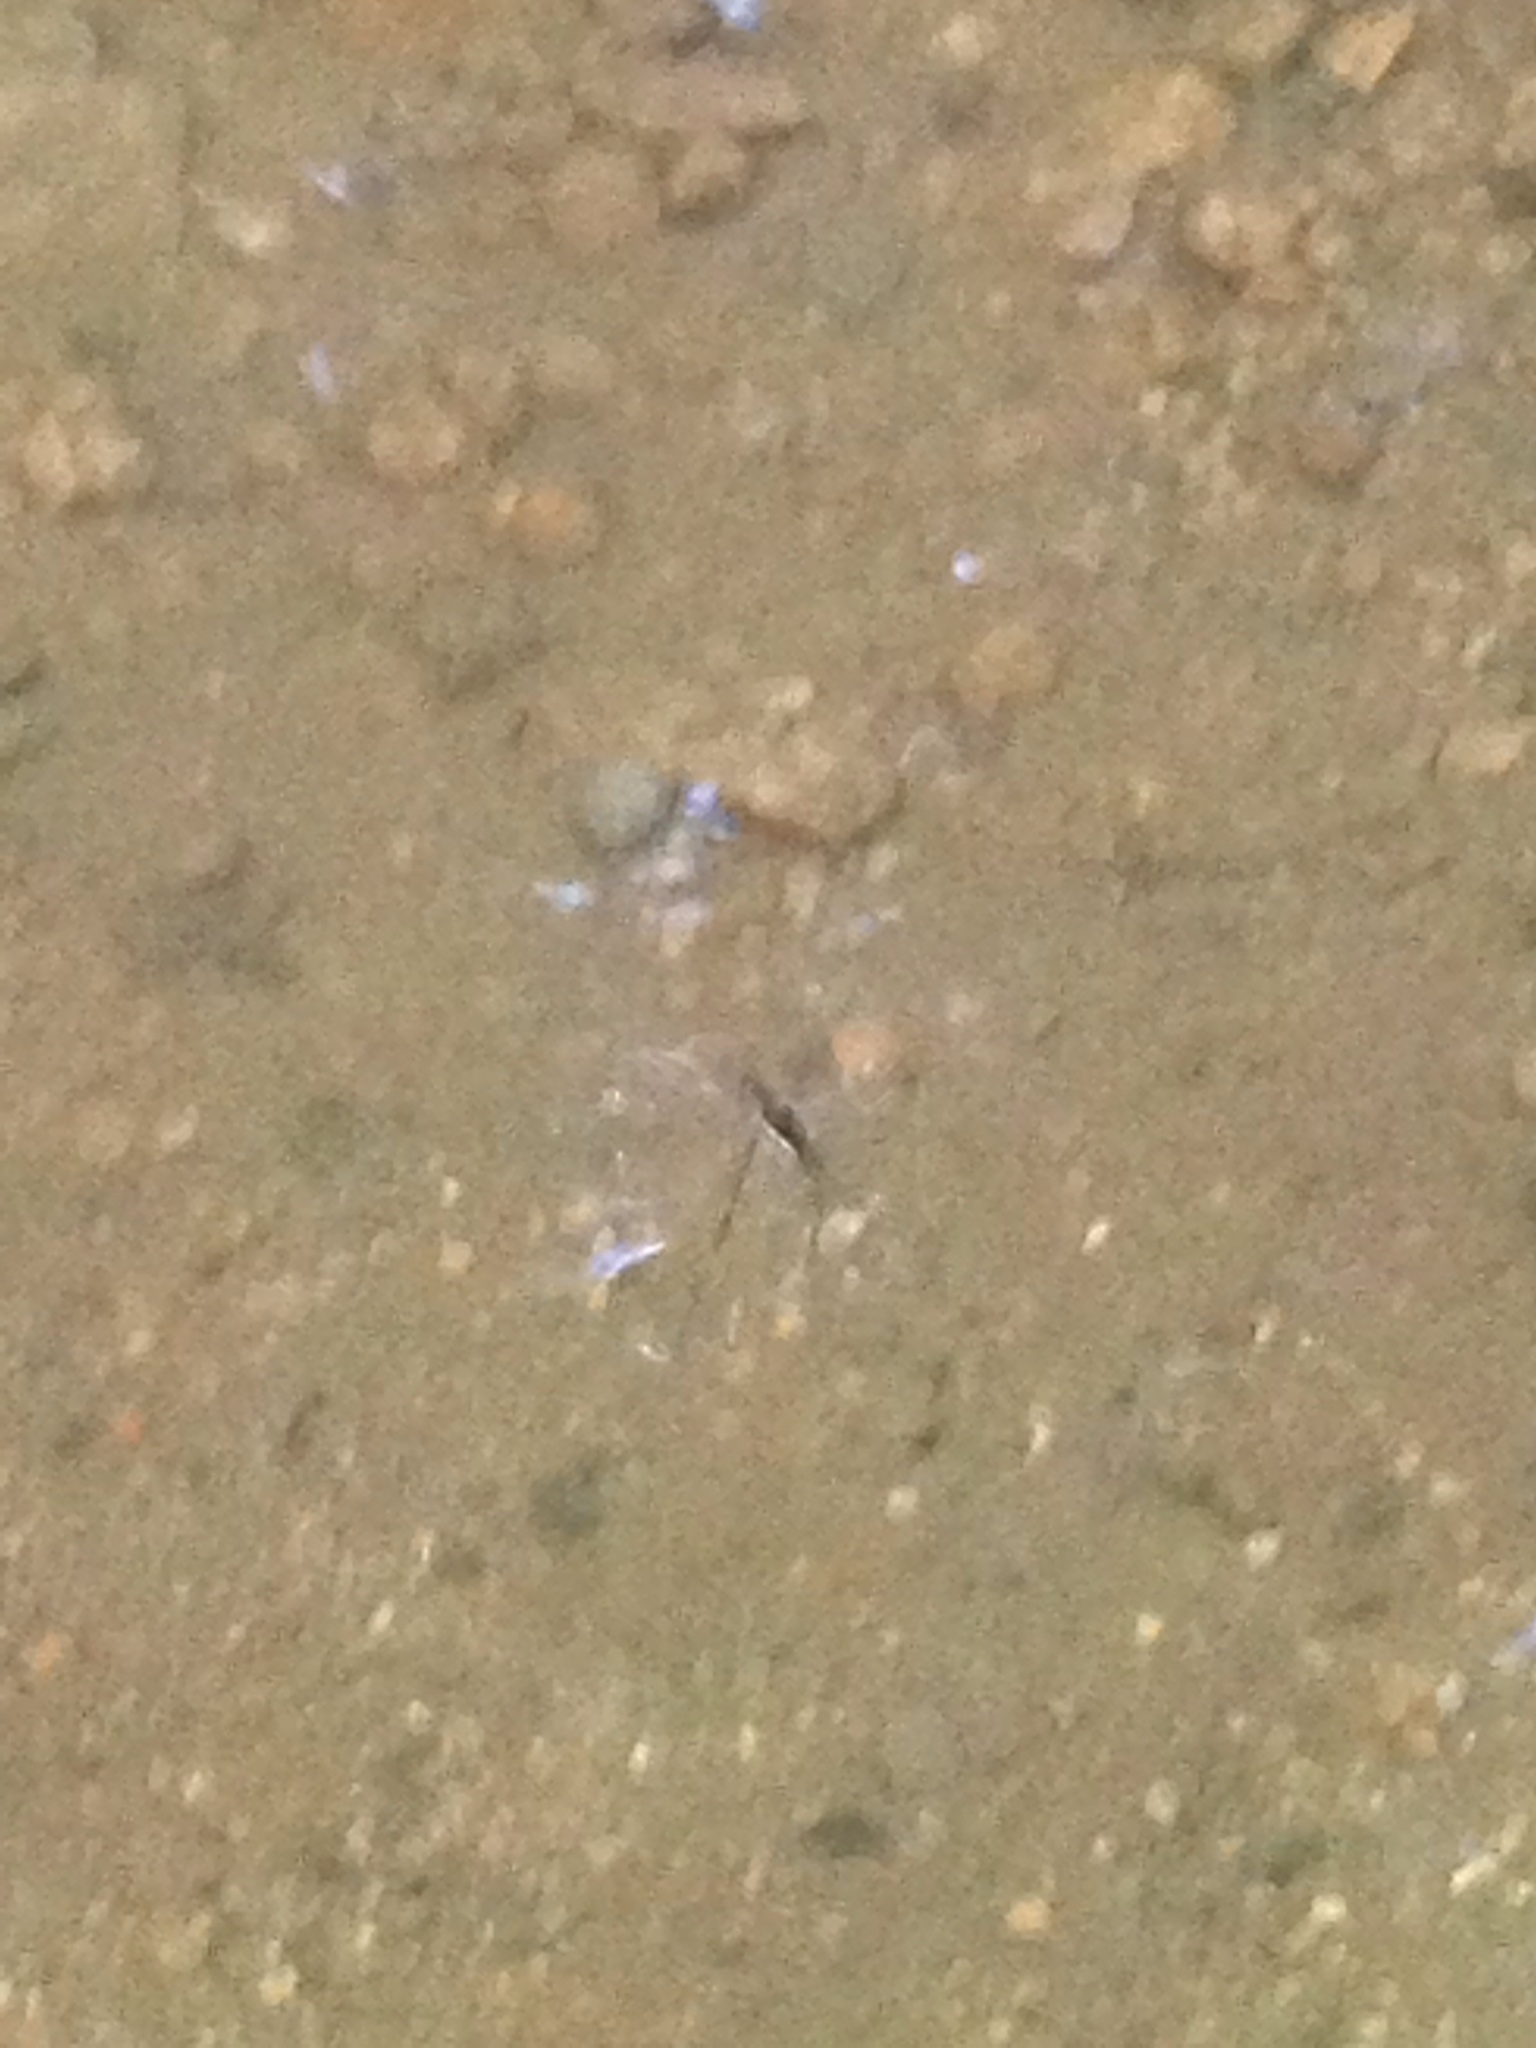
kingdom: Animalia
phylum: Arthropoda
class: Insecta
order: Hemiptera
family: Gerridae
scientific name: Gerridae
